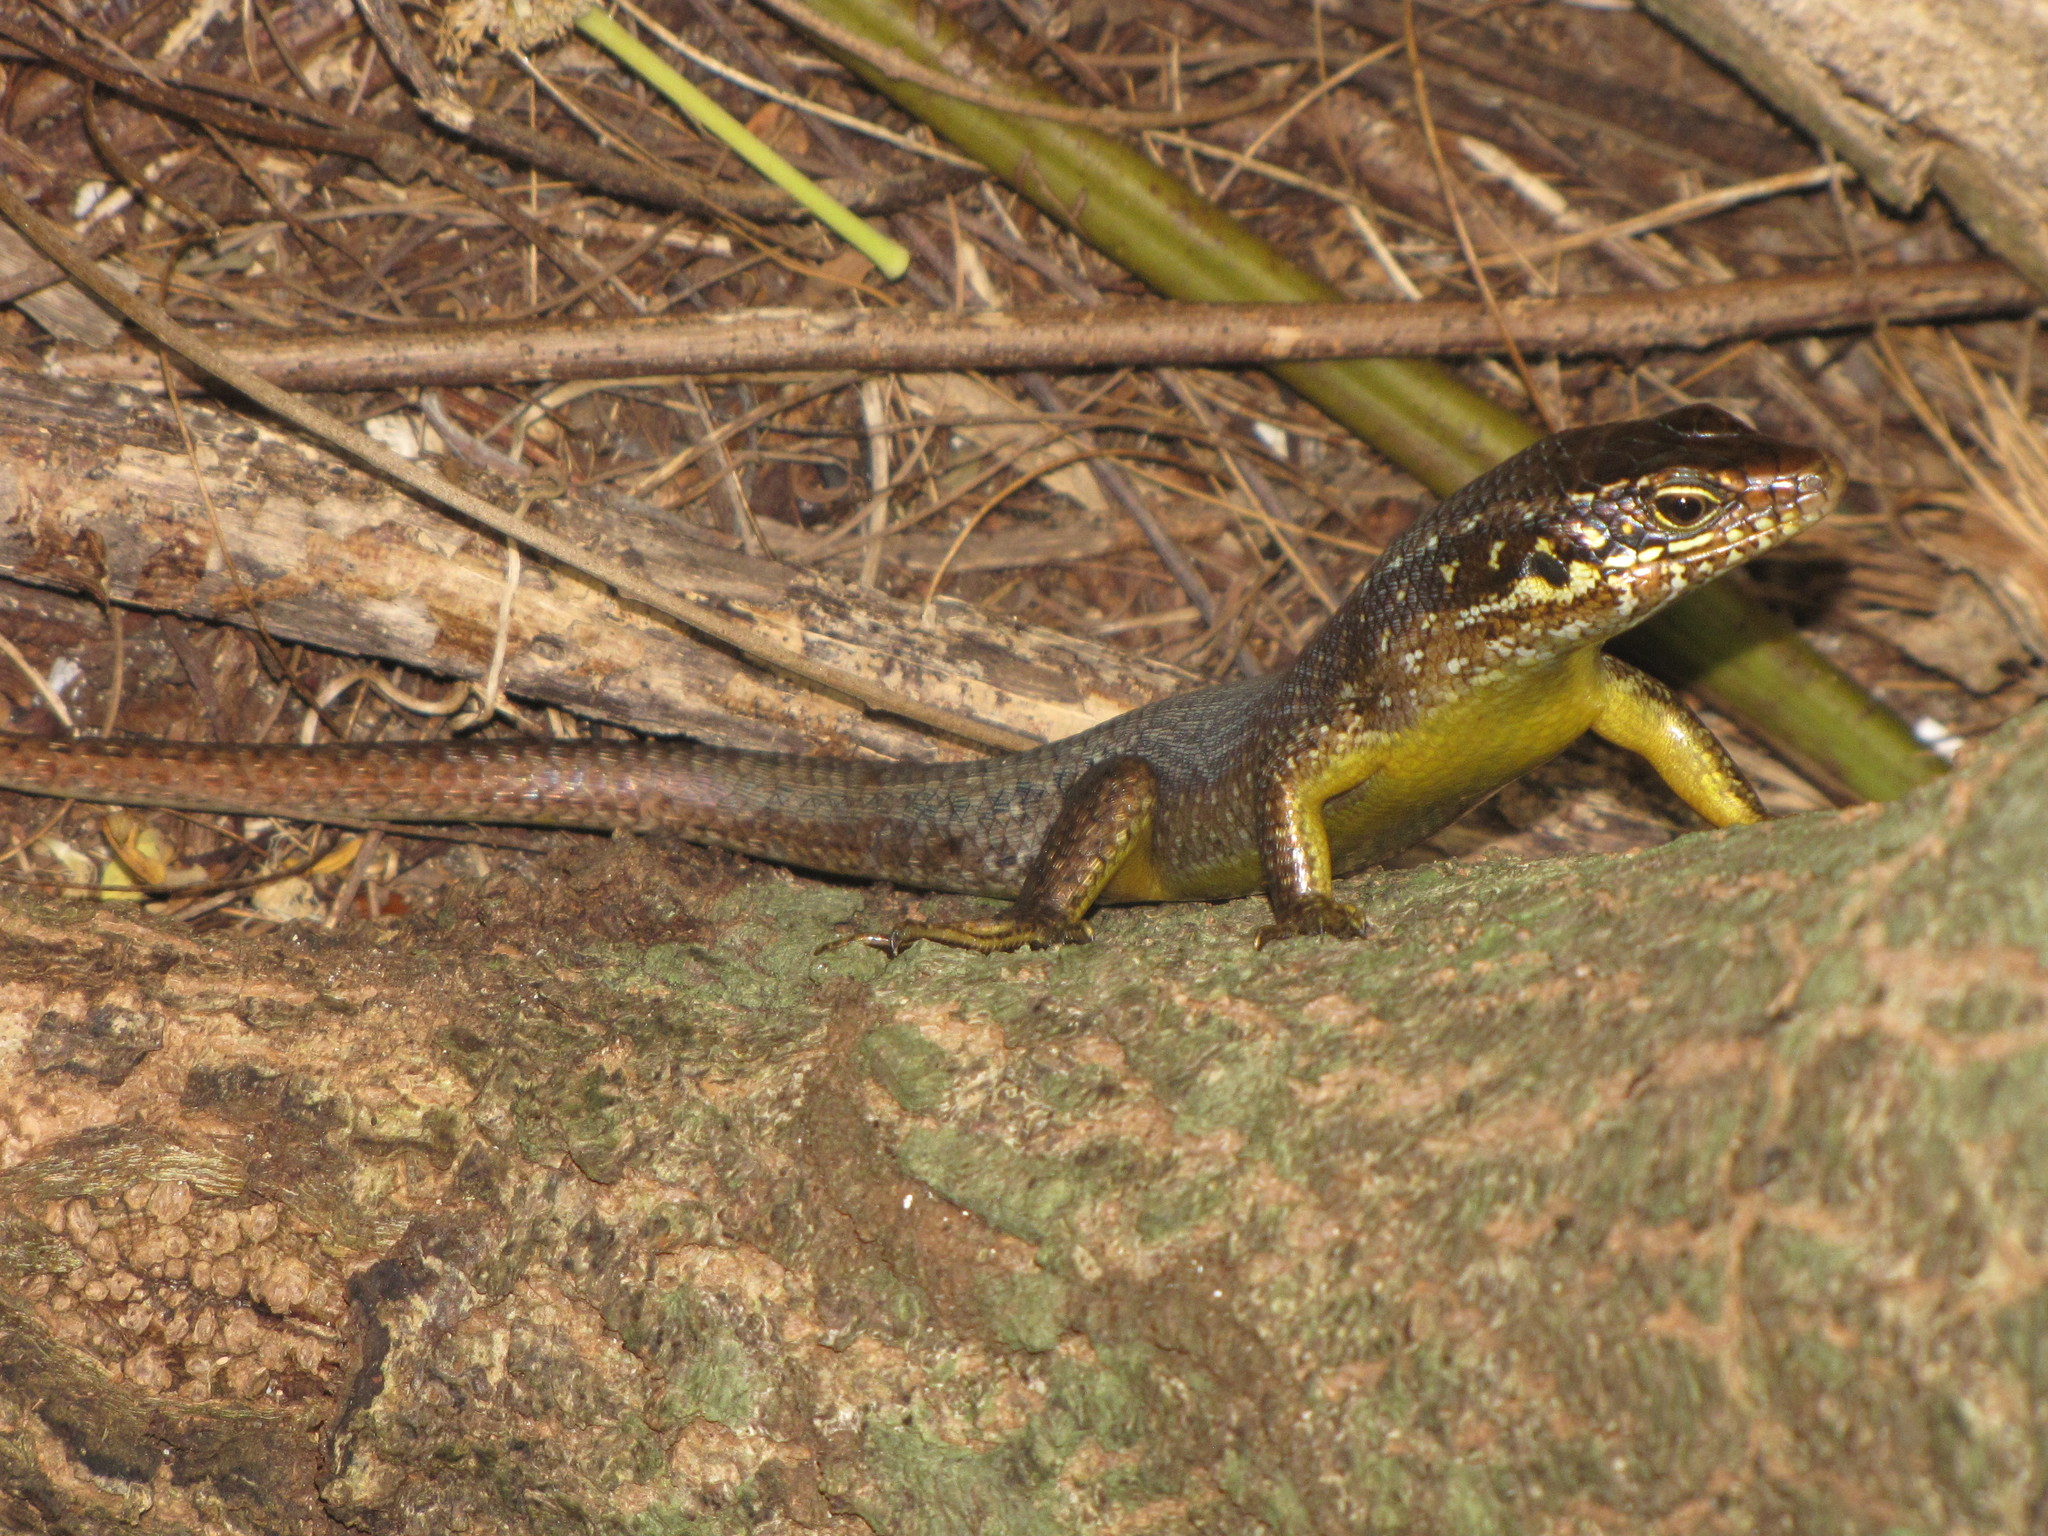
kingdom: Animalia
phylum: Chordata
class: Squamata
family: Scincidae
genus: Trachylepis
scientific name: Trachylepis comorensis
